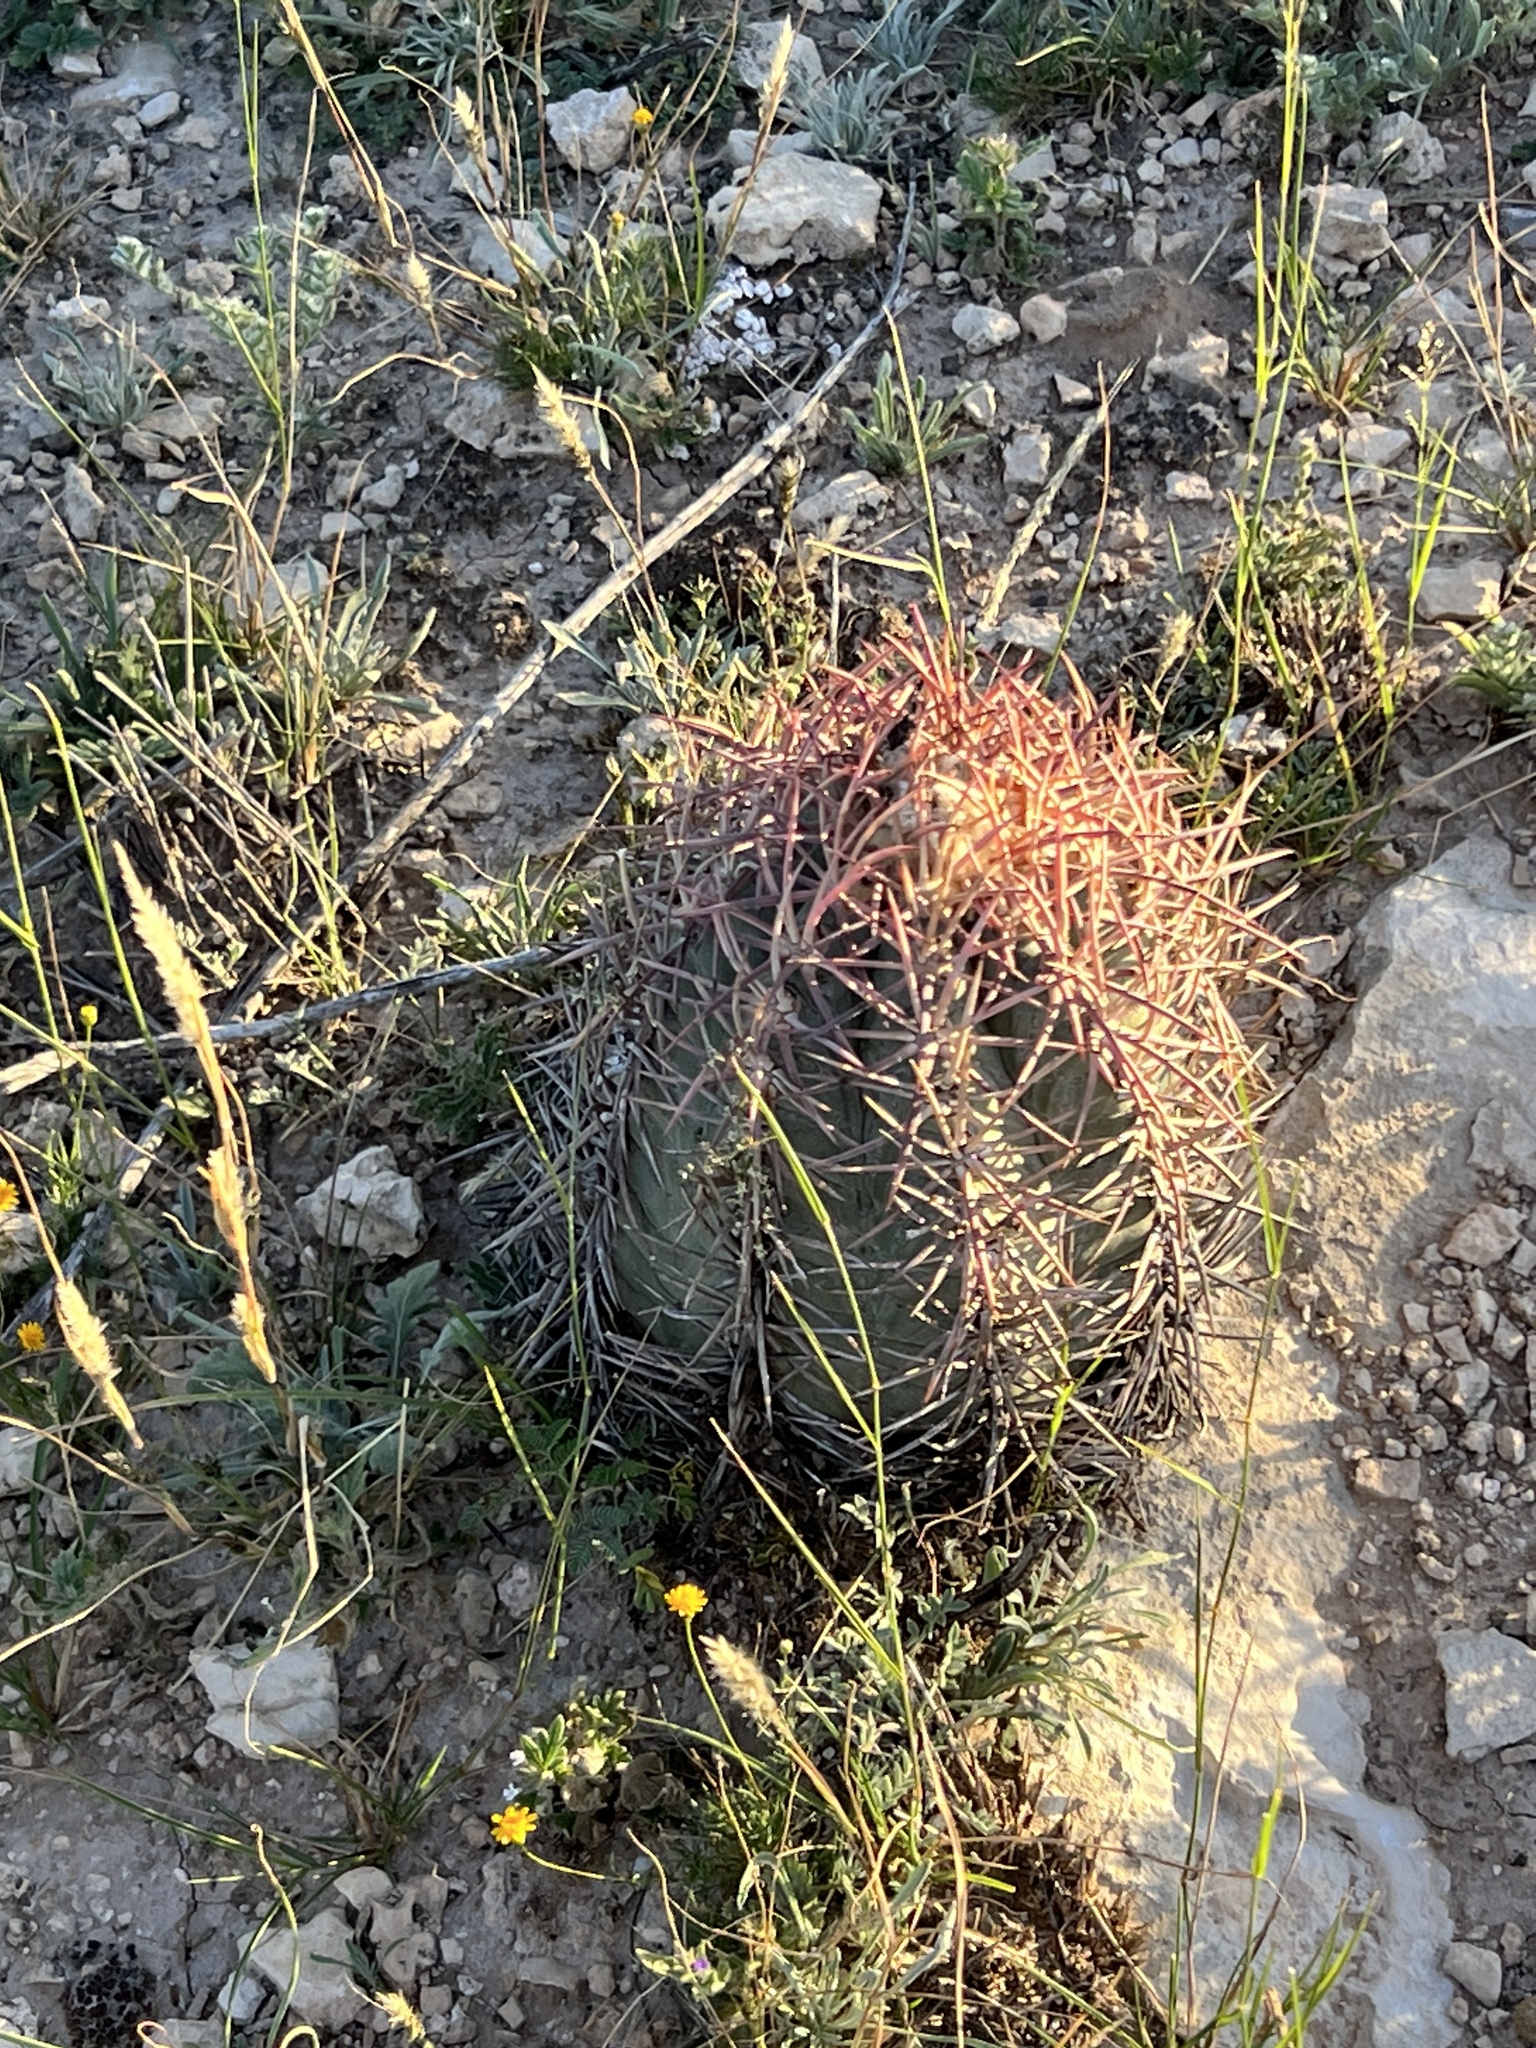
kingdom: Plantae
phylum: Tracheophyta
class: Magnoliopsida
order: Caryophyllales
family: Cactaceae
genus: Echinocactus
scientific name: Echinocactus horizonthalonius
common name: Devilshead
